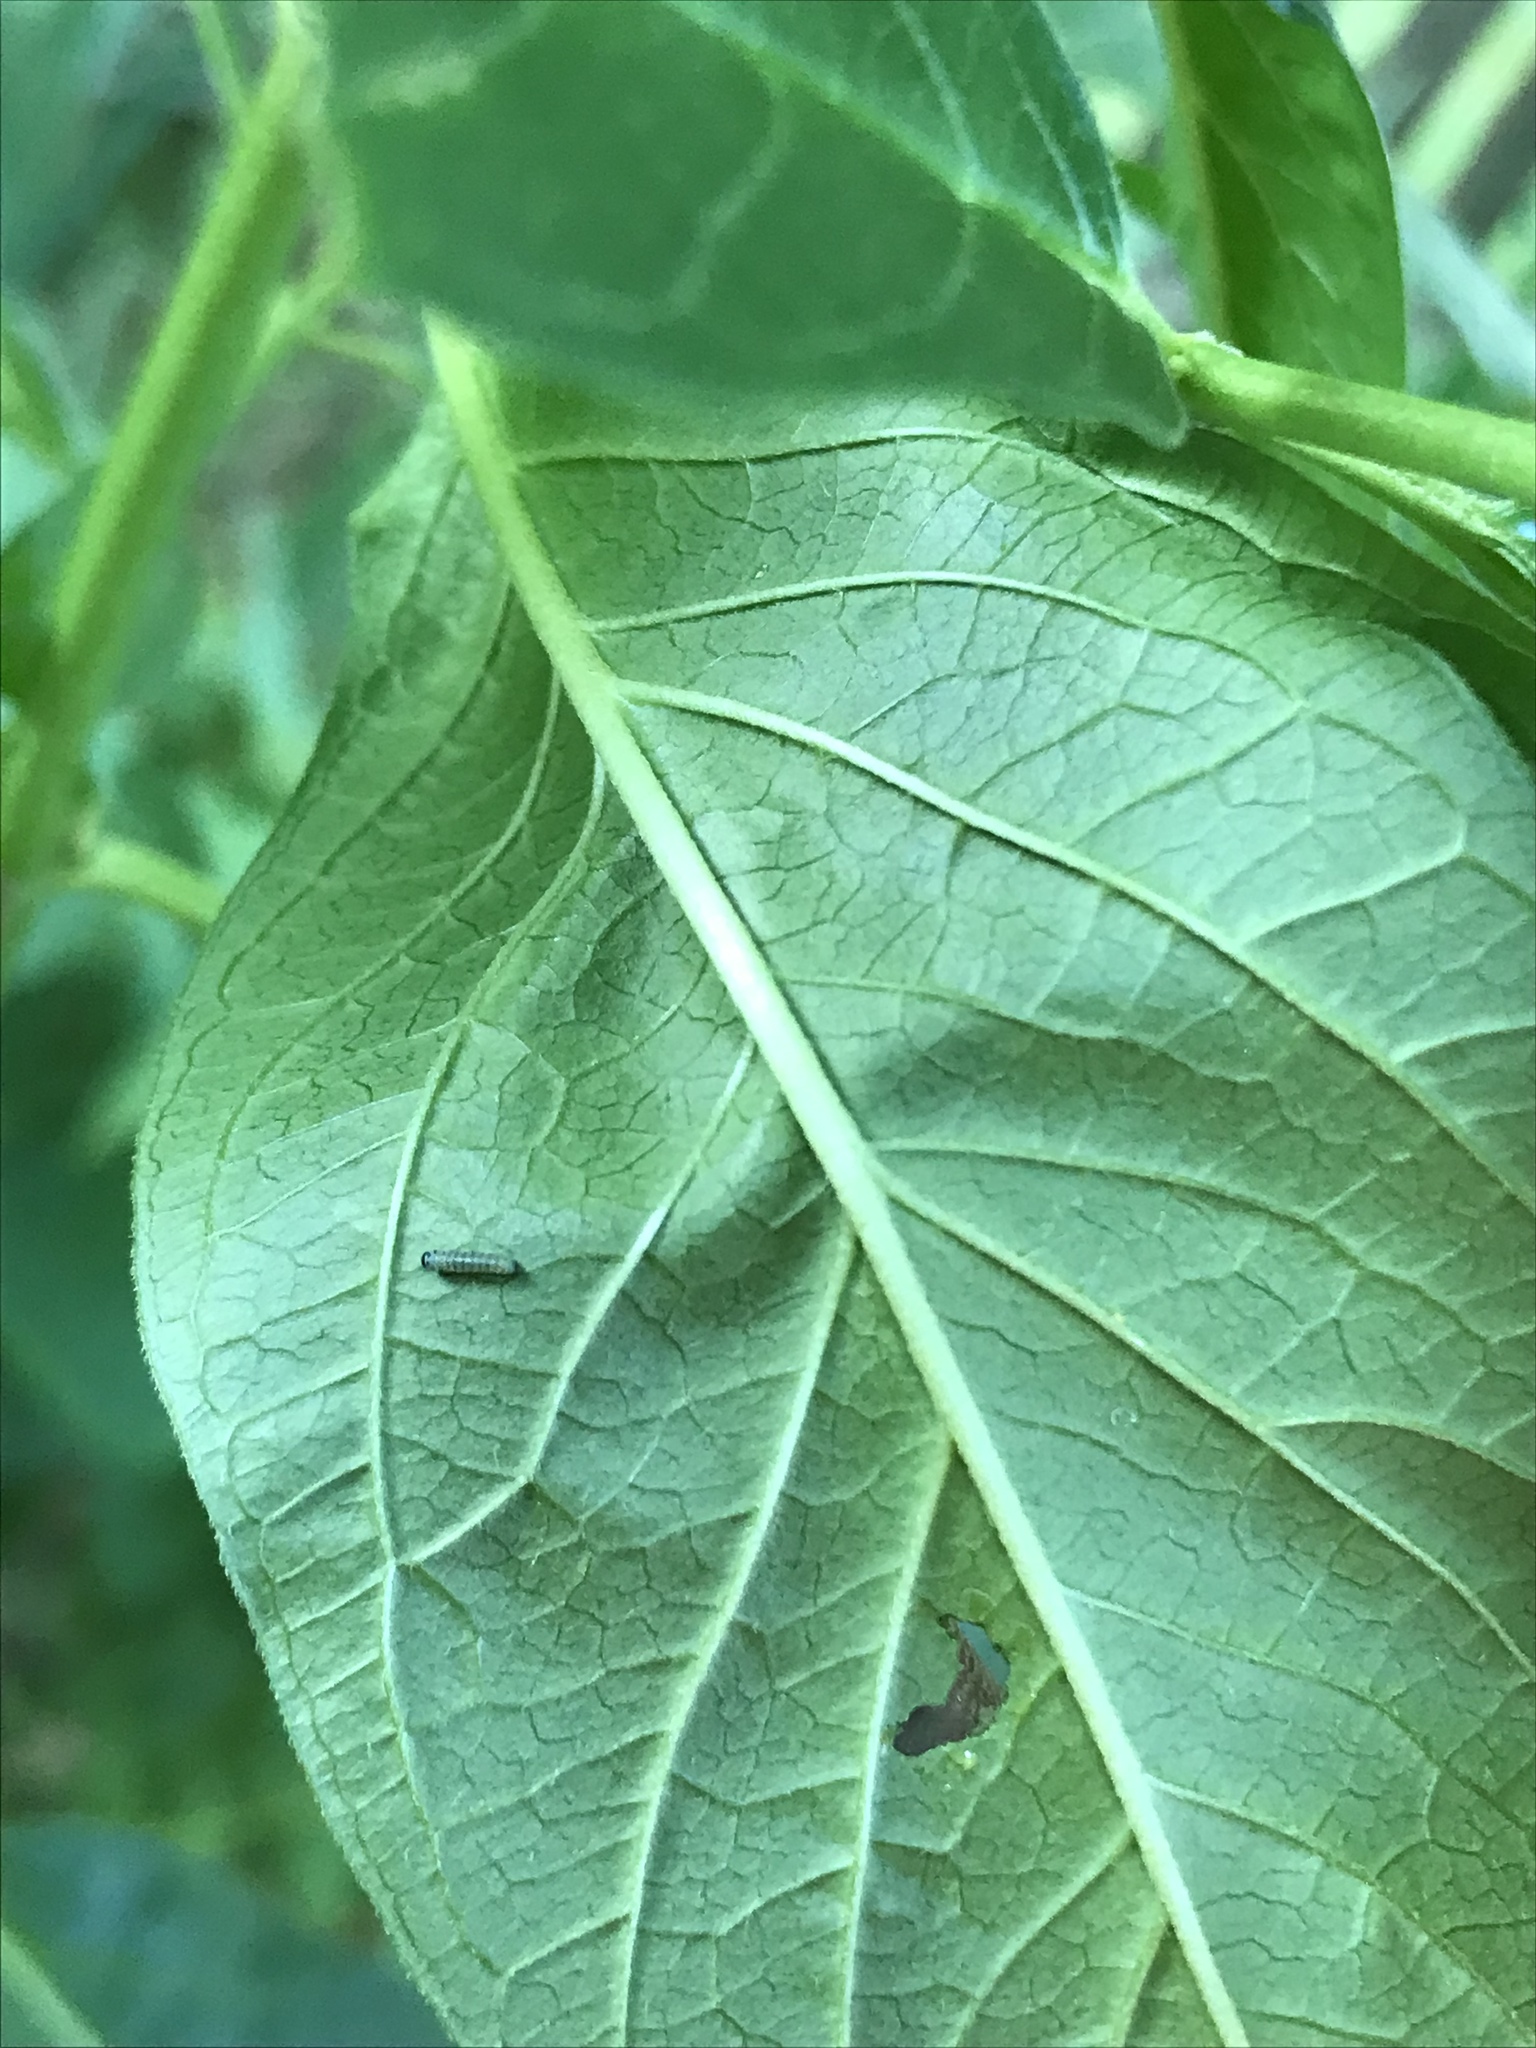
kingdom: Animalia
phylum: Arthropoda
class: Insecta
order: Lepidoptera
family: Nymphalidae
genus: Danaus
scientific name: Danaus plexippus
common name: Monarch
